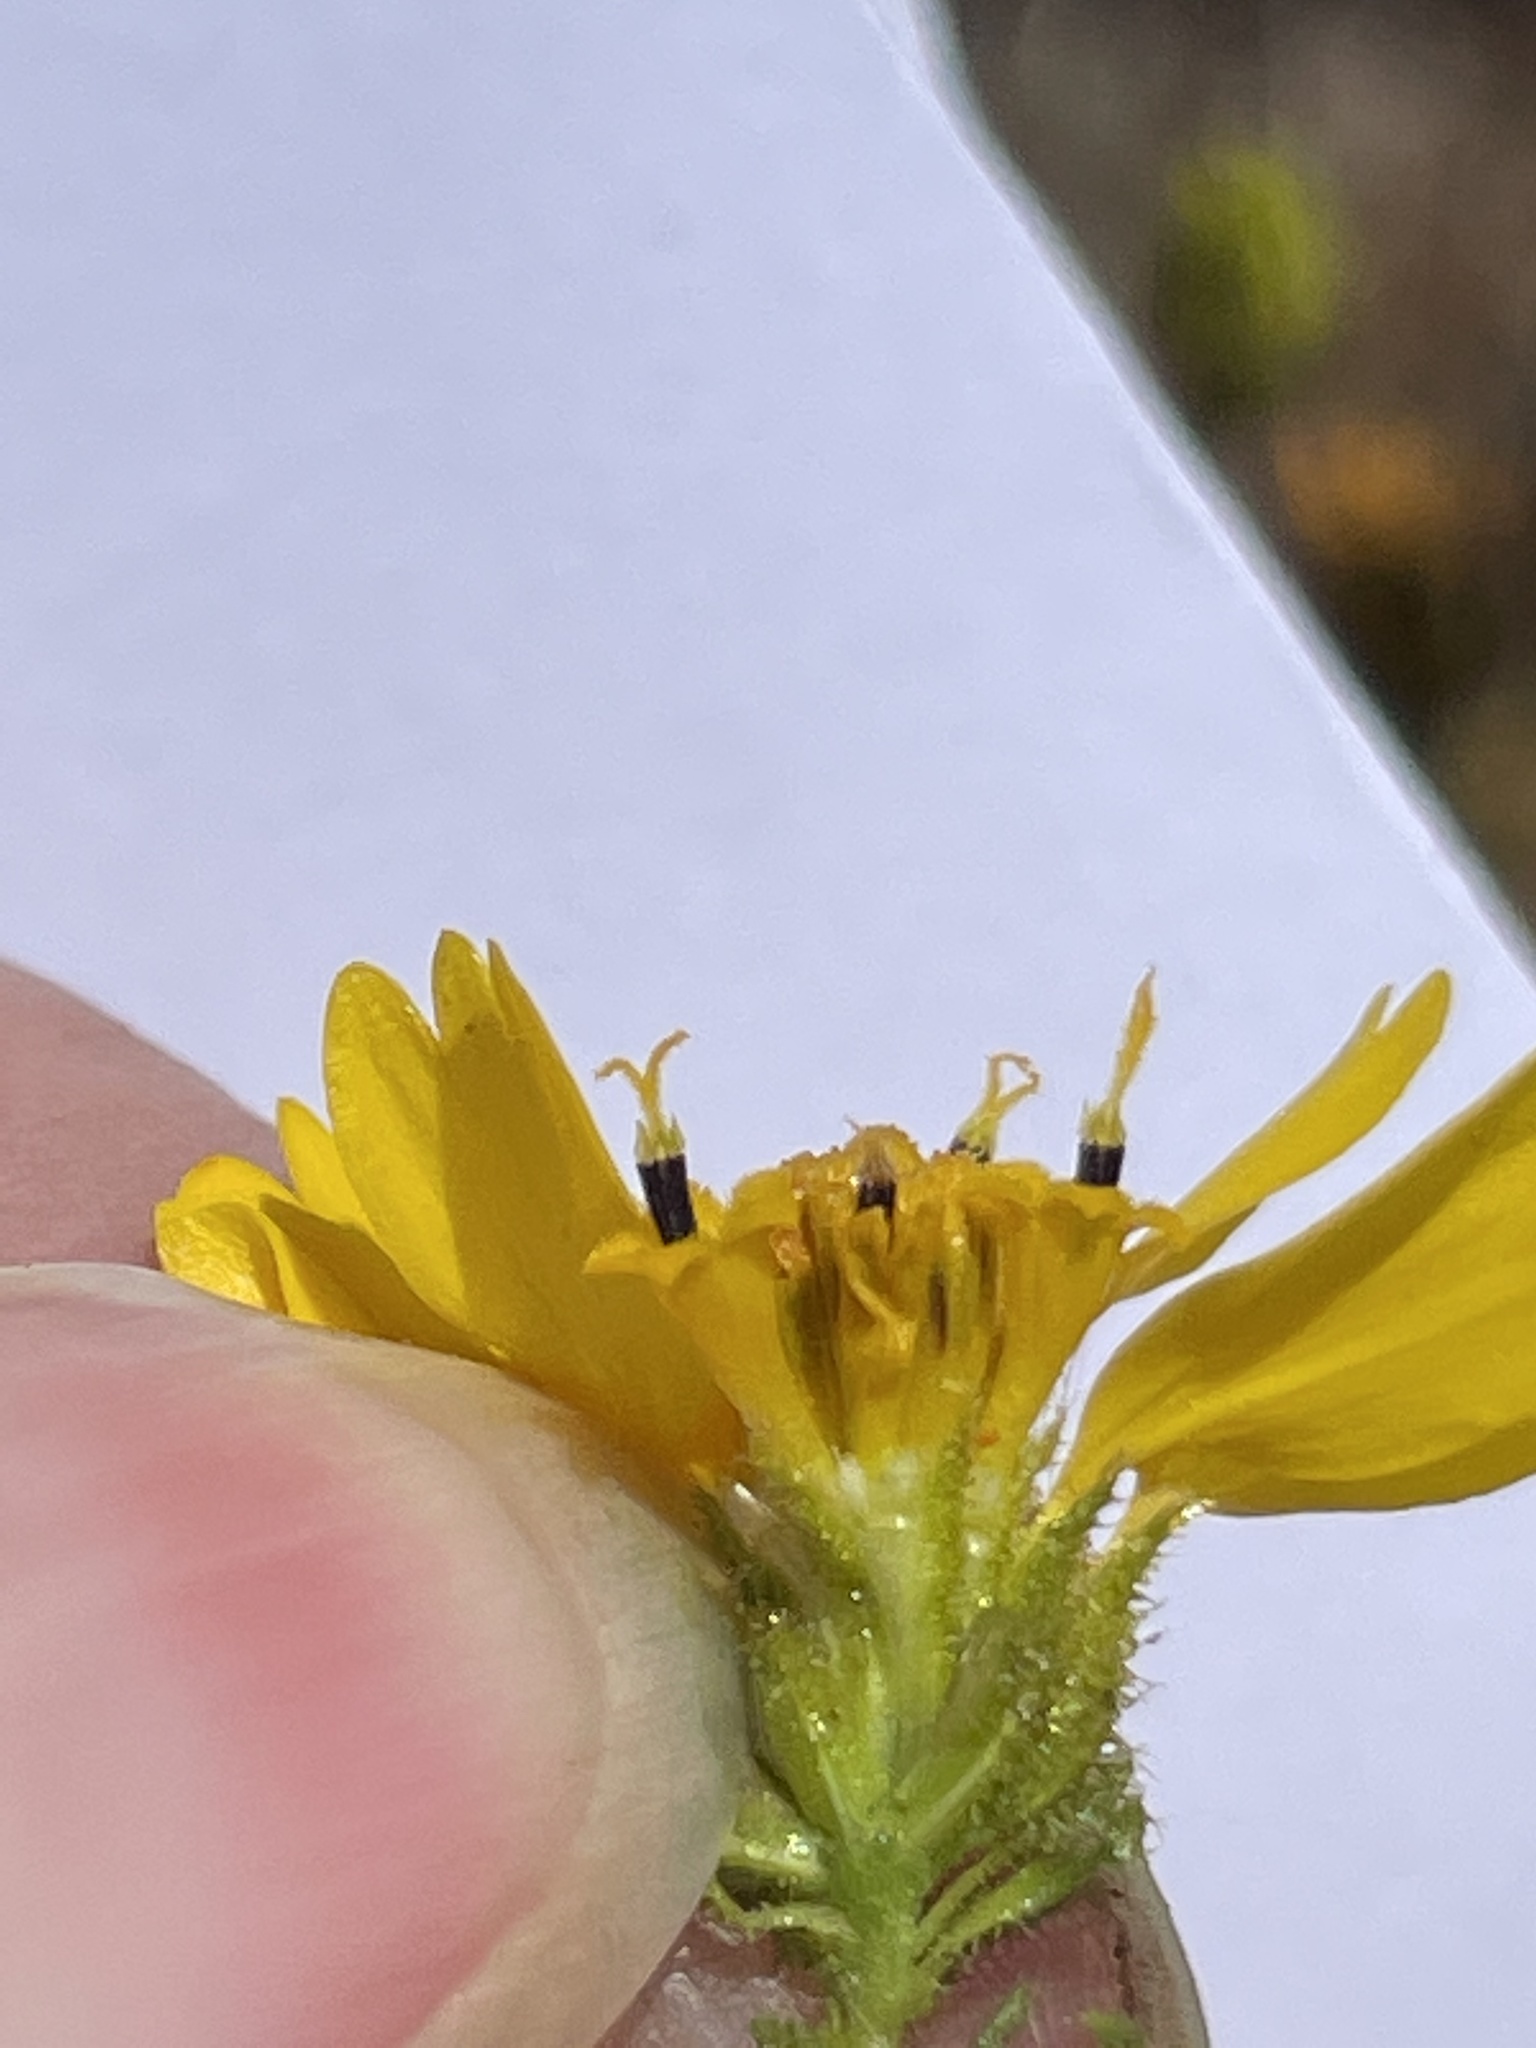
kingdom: Plantae
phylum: Tracheophyta
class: Magnoliopsida
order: Asterales
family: Asteraceae
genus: Deinandra
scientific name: Deinandra conjugens
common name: Otay tarplant
